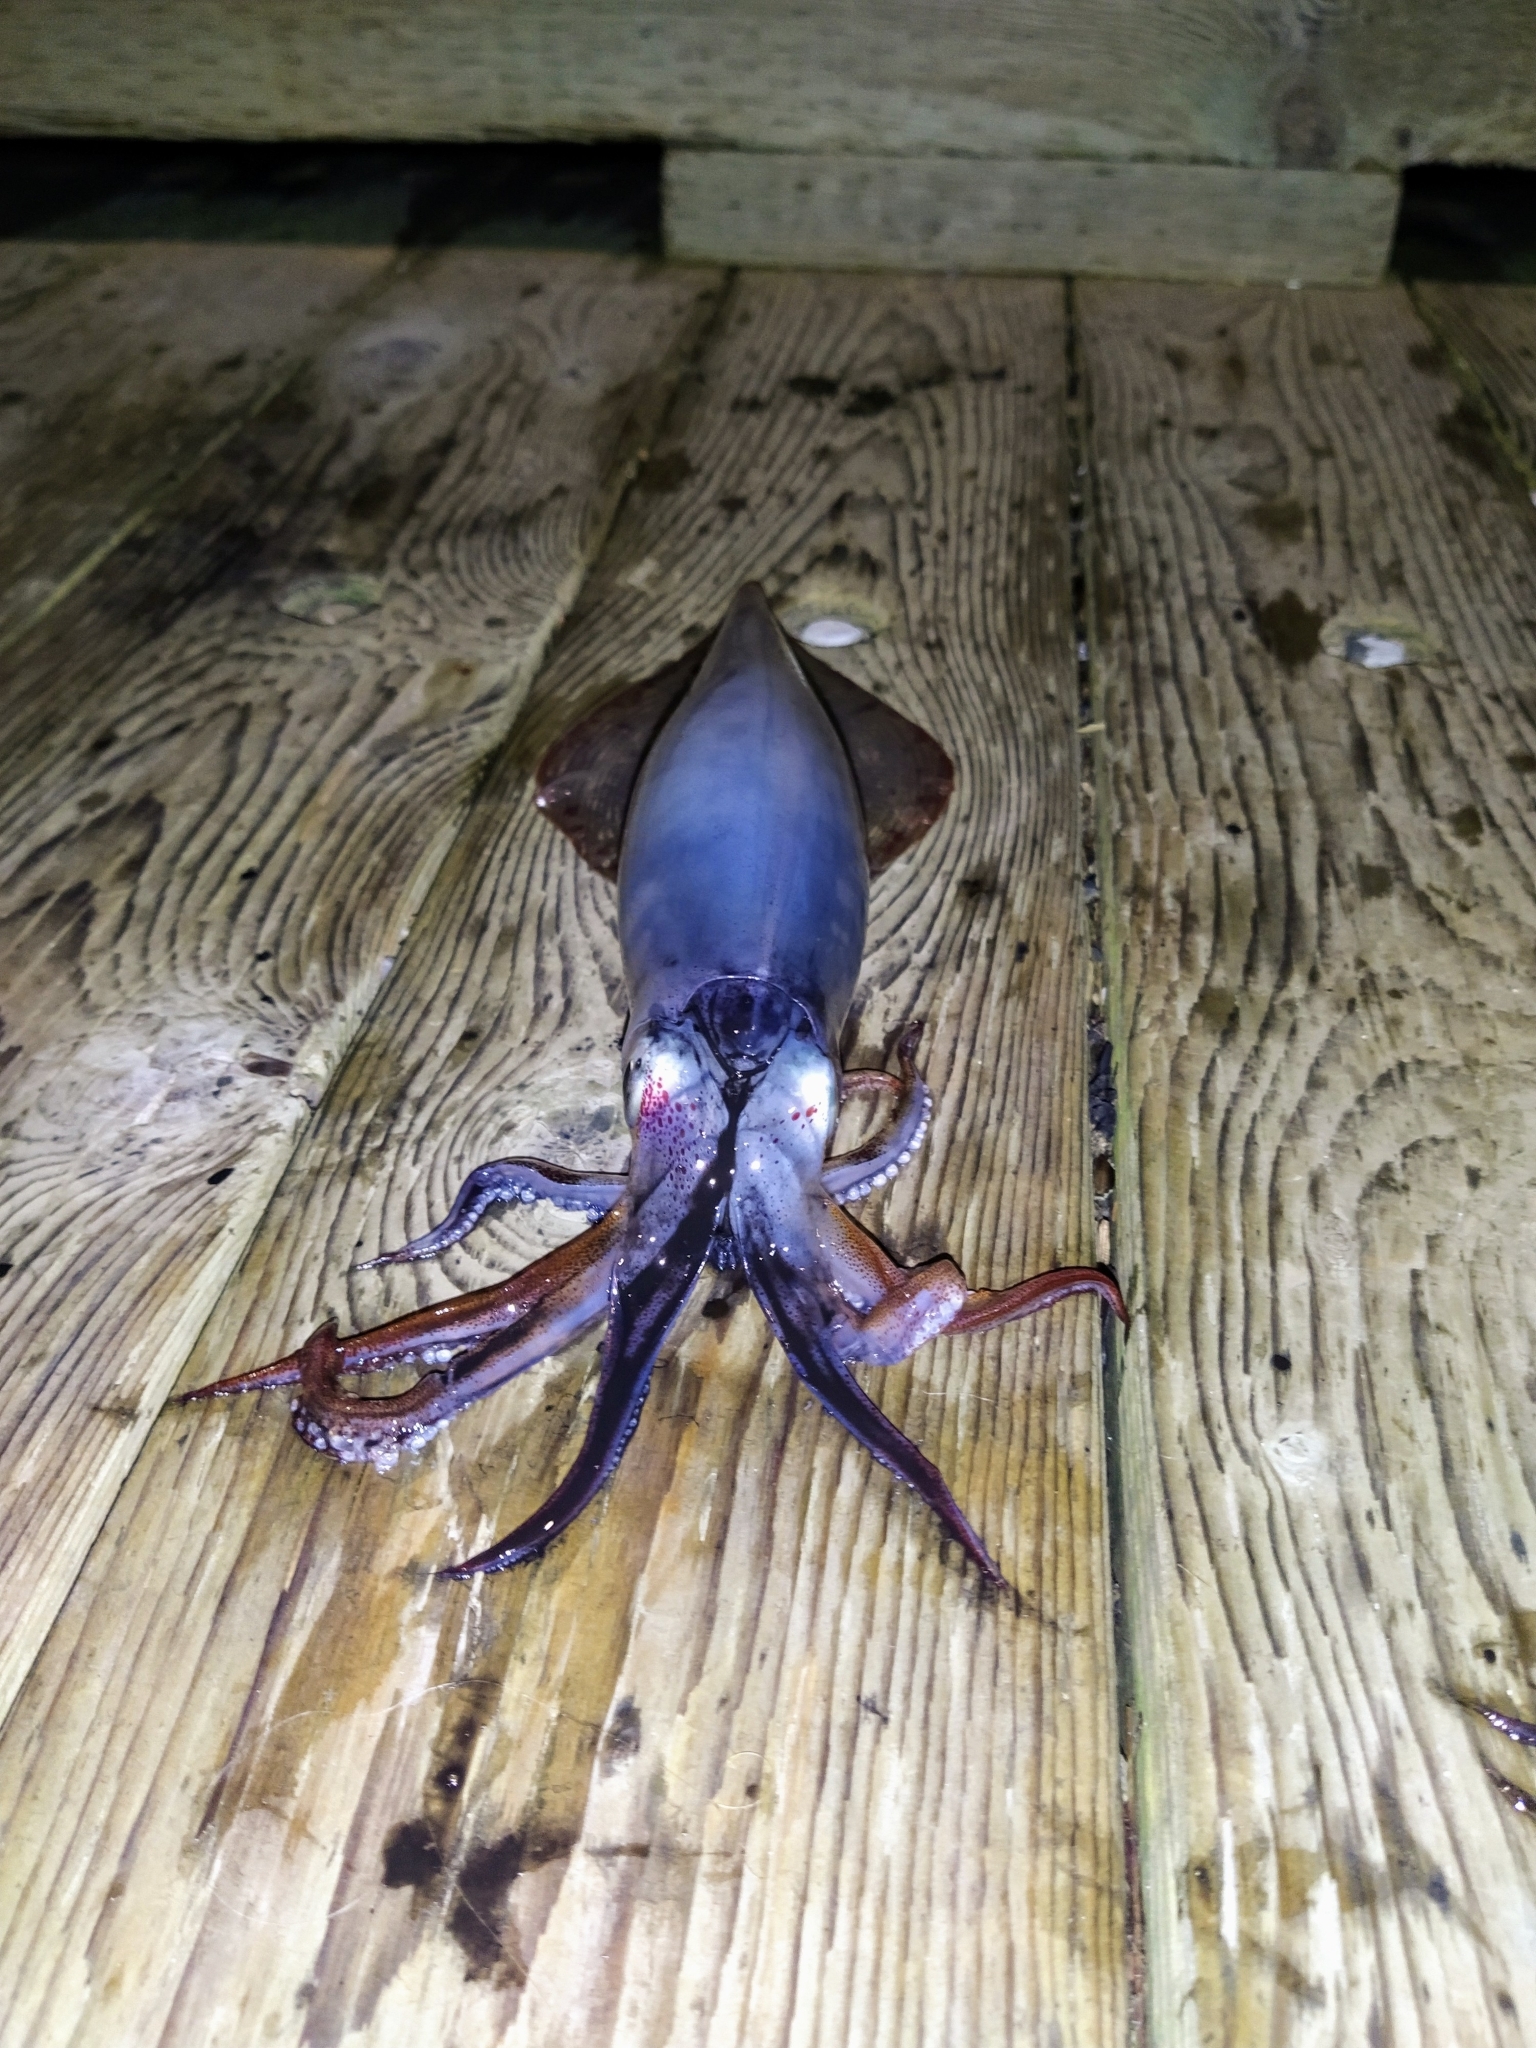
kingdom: Animalia
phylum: Mollusca
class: Cephalopoda
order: Myopsida
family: Loliginidae
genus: Doryteuthis
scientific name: Doryteuthis pealeii
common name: Long-finned inshore squid
